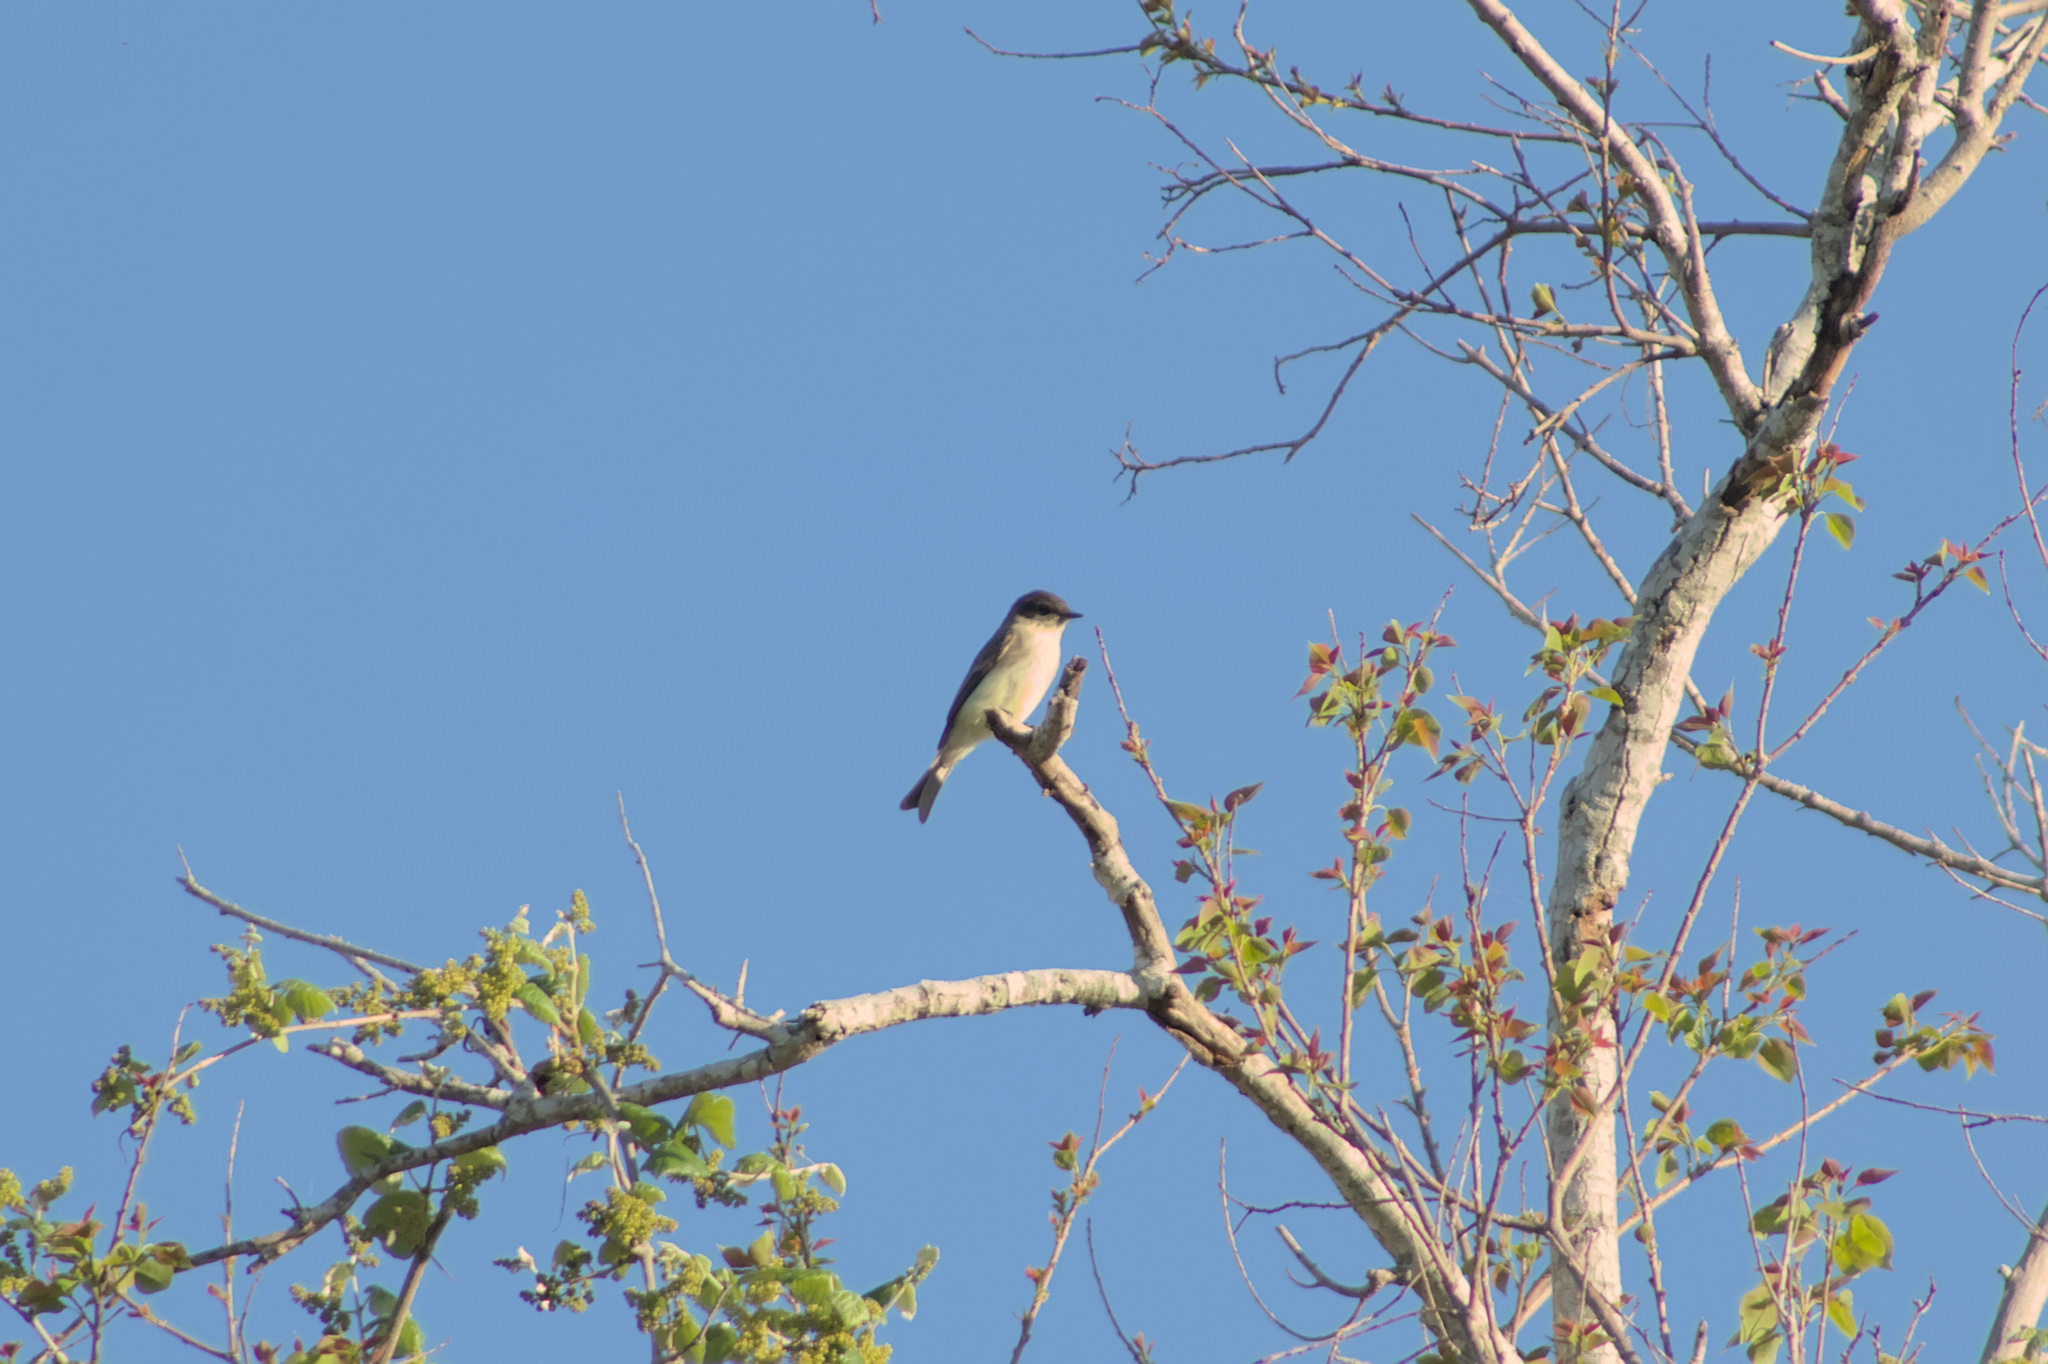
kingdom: Animalia
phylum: Chordata
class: Aves
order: Passeriformes
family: Tyrannidae
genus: Sayornis
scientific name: Sayornis phoebe
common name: Eastern phoebe
